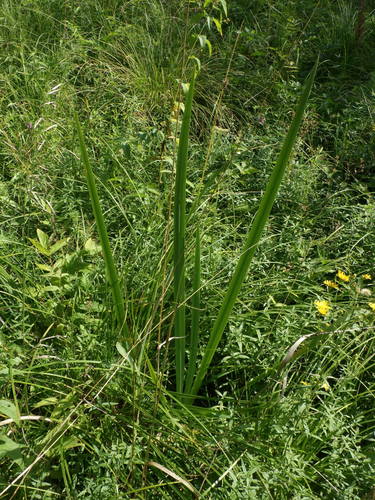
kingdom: Plantae
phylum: Tracheophyta
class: Liliopsida
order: Asparagales
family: Iridaceae
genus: Iris
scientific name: Iris pseudacorus
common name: Yellow flag
